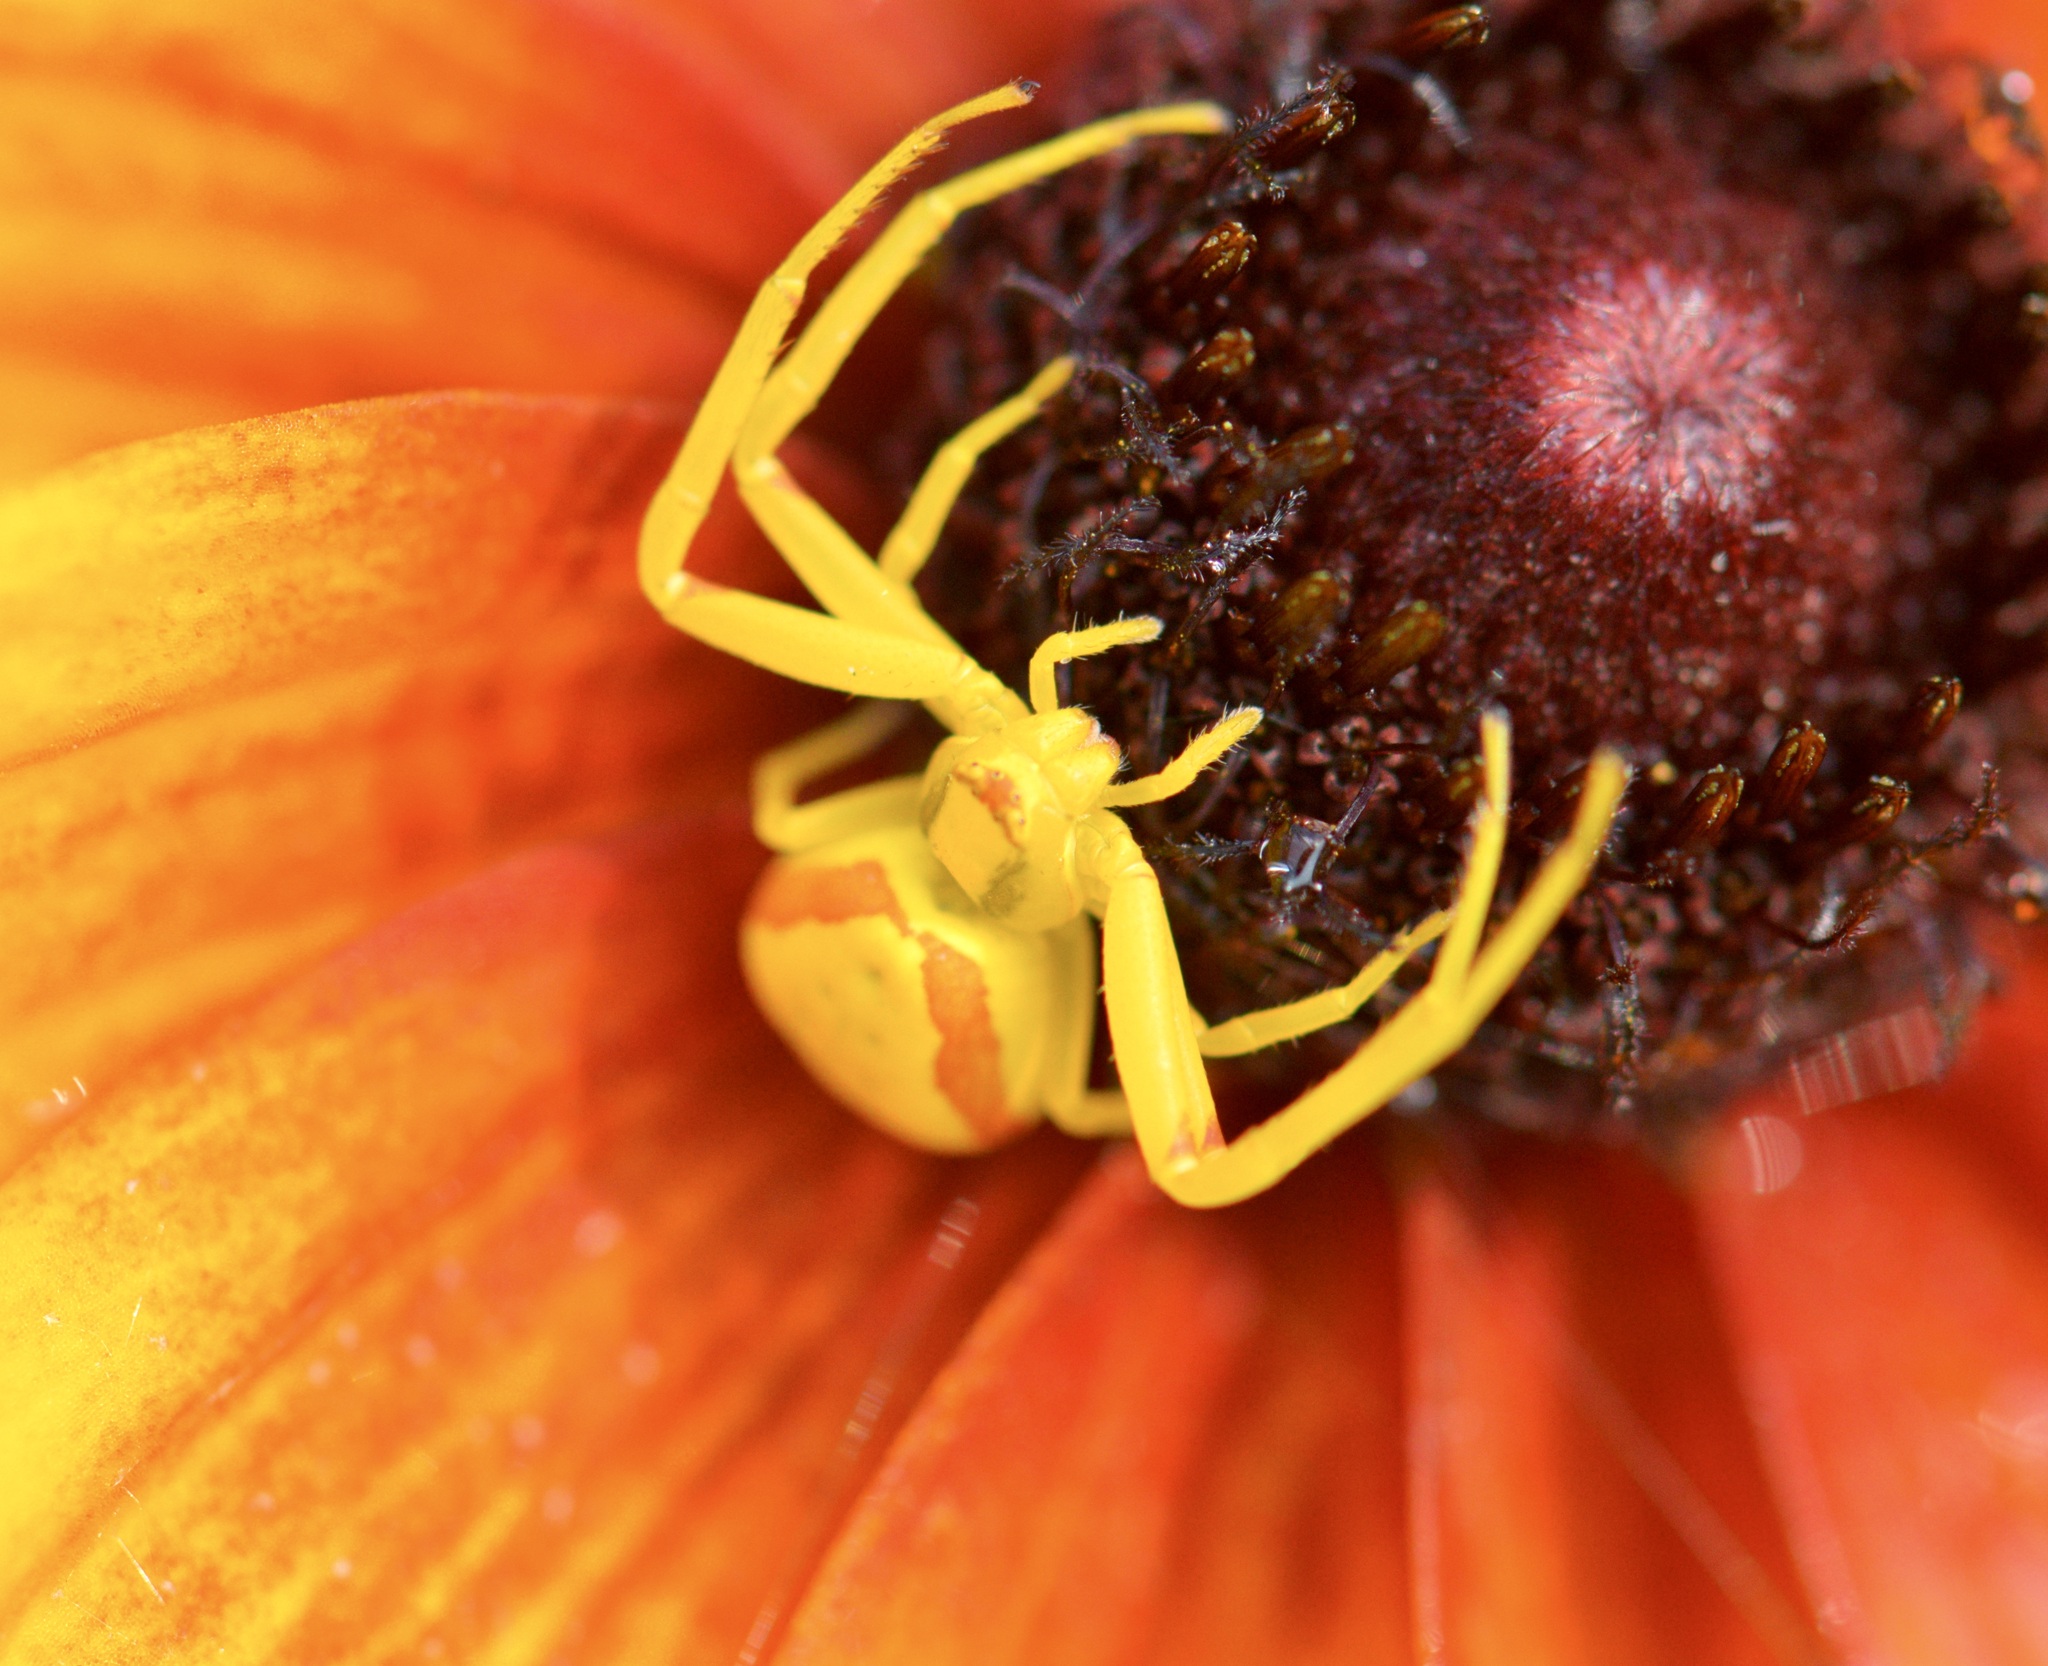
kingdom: Animalia
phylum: Arthropoda
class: Arachnida
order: Araneae
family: Thomisidae
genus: Misumena
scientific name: Misumena vatia
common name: Goldenrod crab spider
